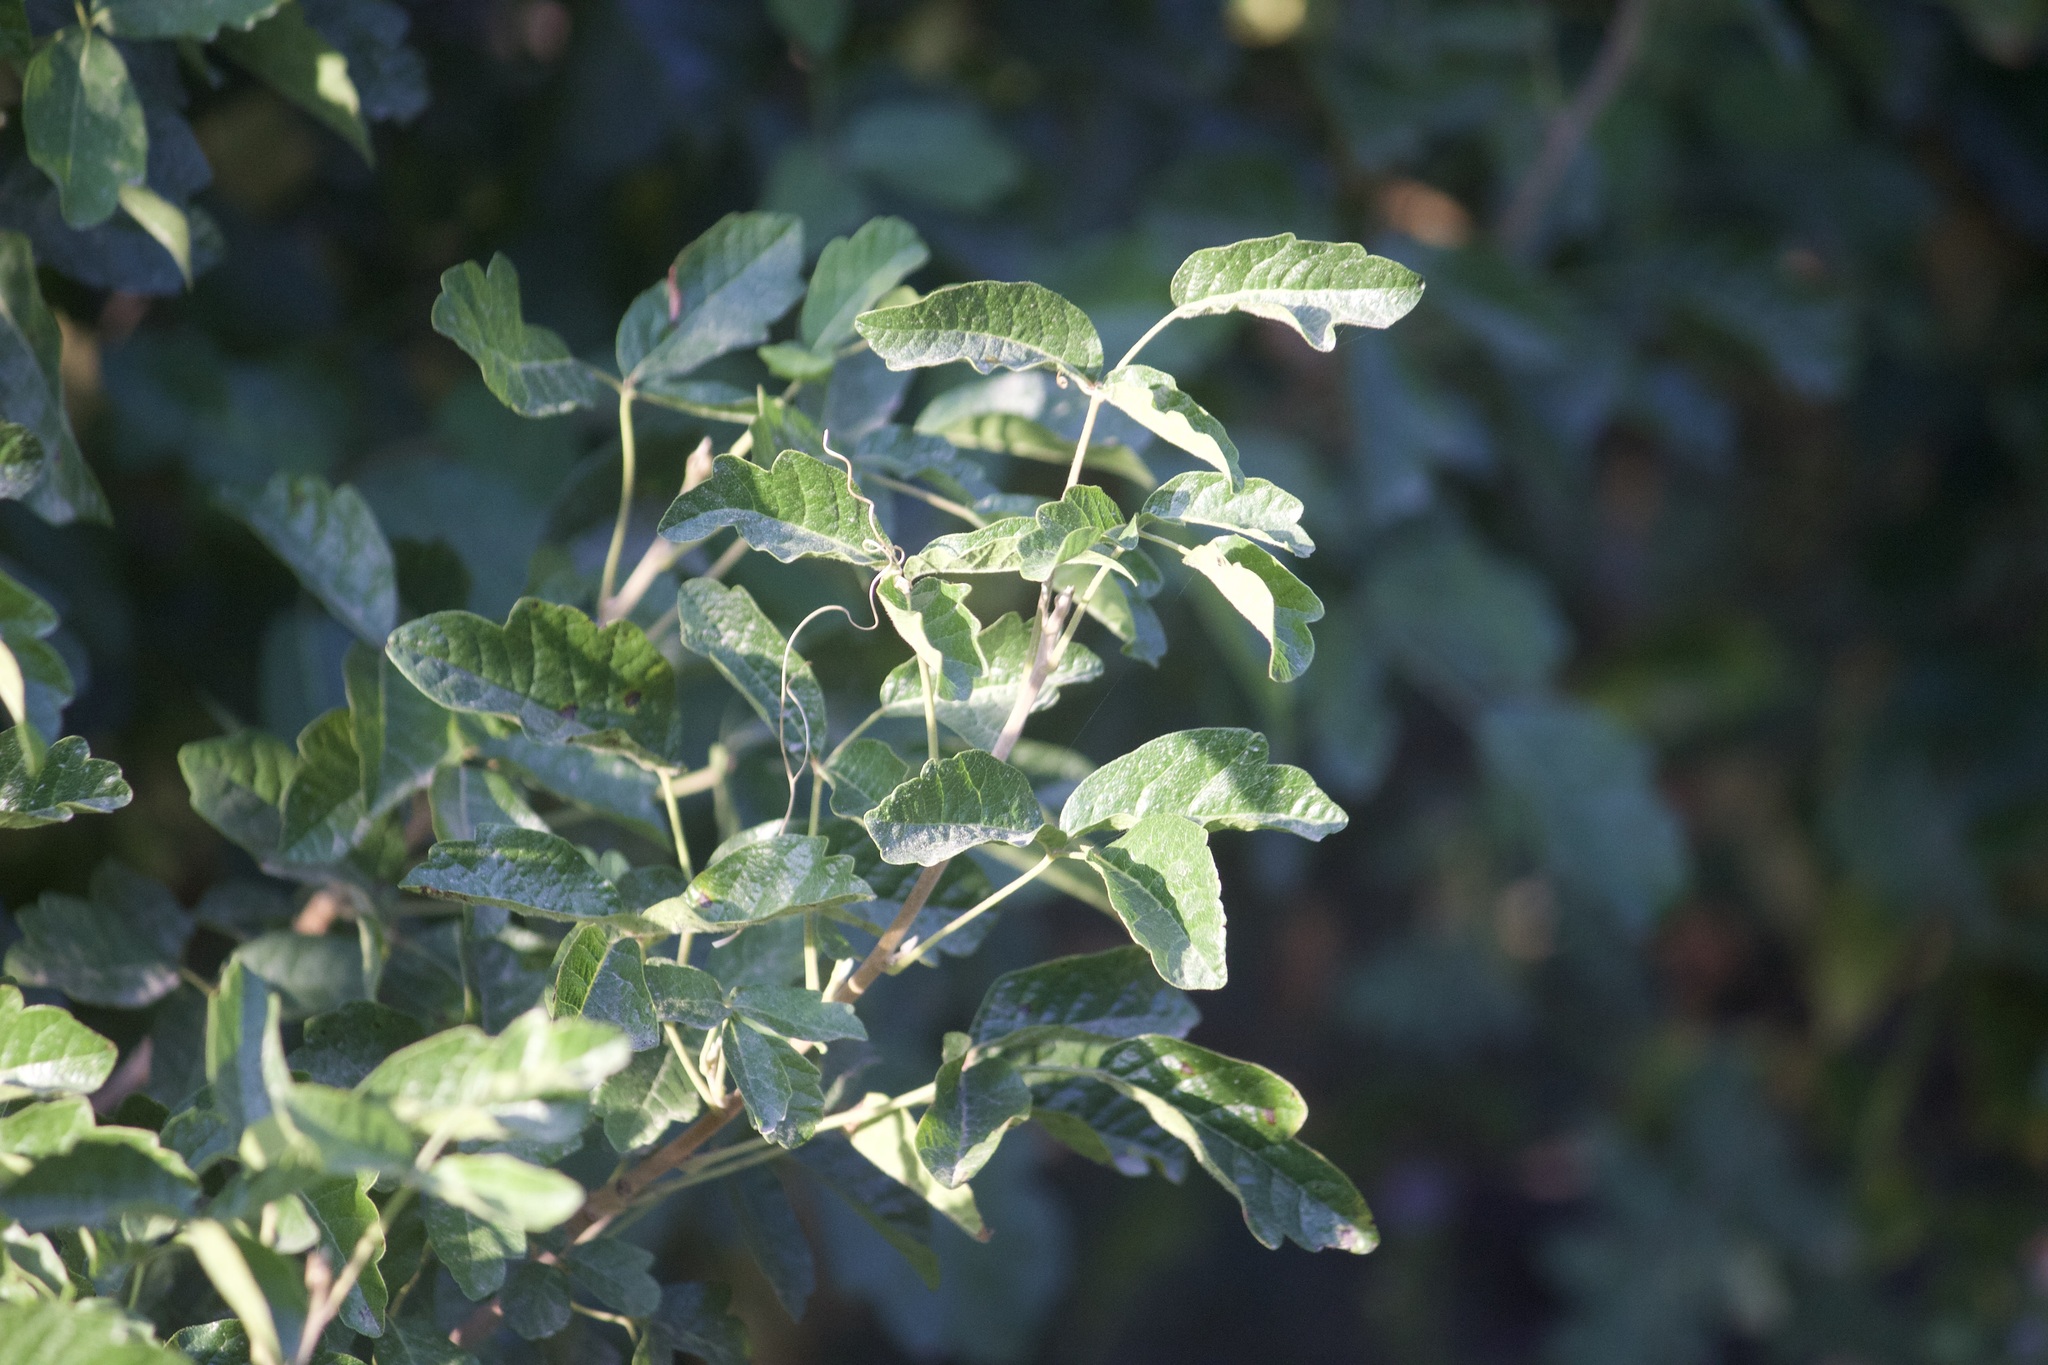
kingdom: Plantae
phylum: Tracheophyta
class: Magnoliopsida
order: Sapindales
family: Anacardiaceae
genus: Toxicodendron
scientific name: Toxicodendron diversilobum
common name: Pacific poison-oak
